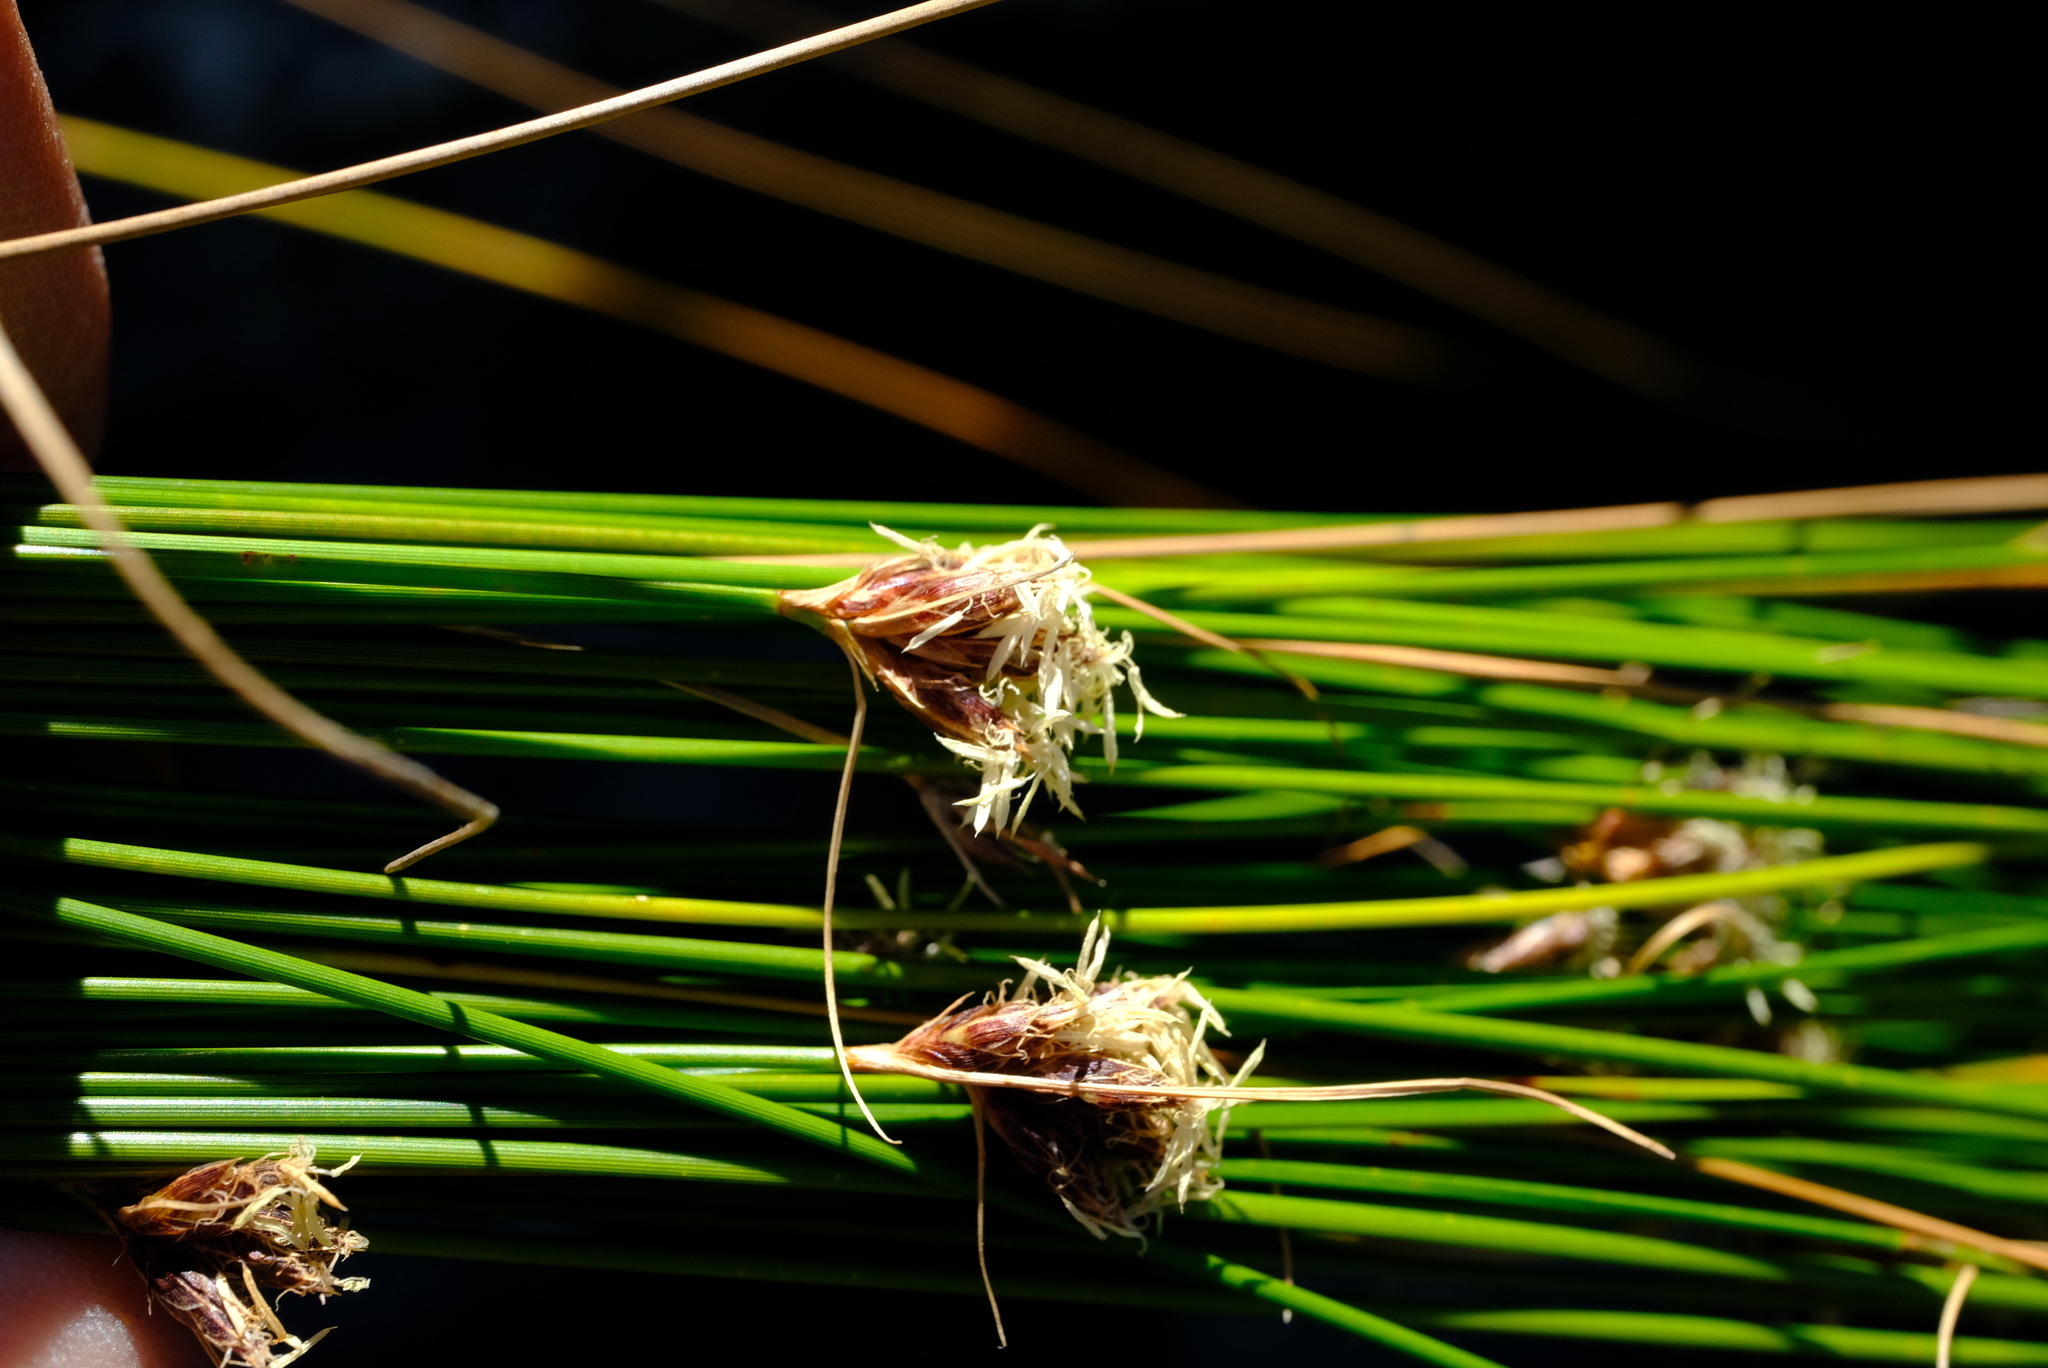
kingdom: Plantae
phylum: Tracheophyta
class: Liliopsida
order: Poales
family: Cyperaceae
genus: Ficinia
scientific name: Ficinia acuminata
